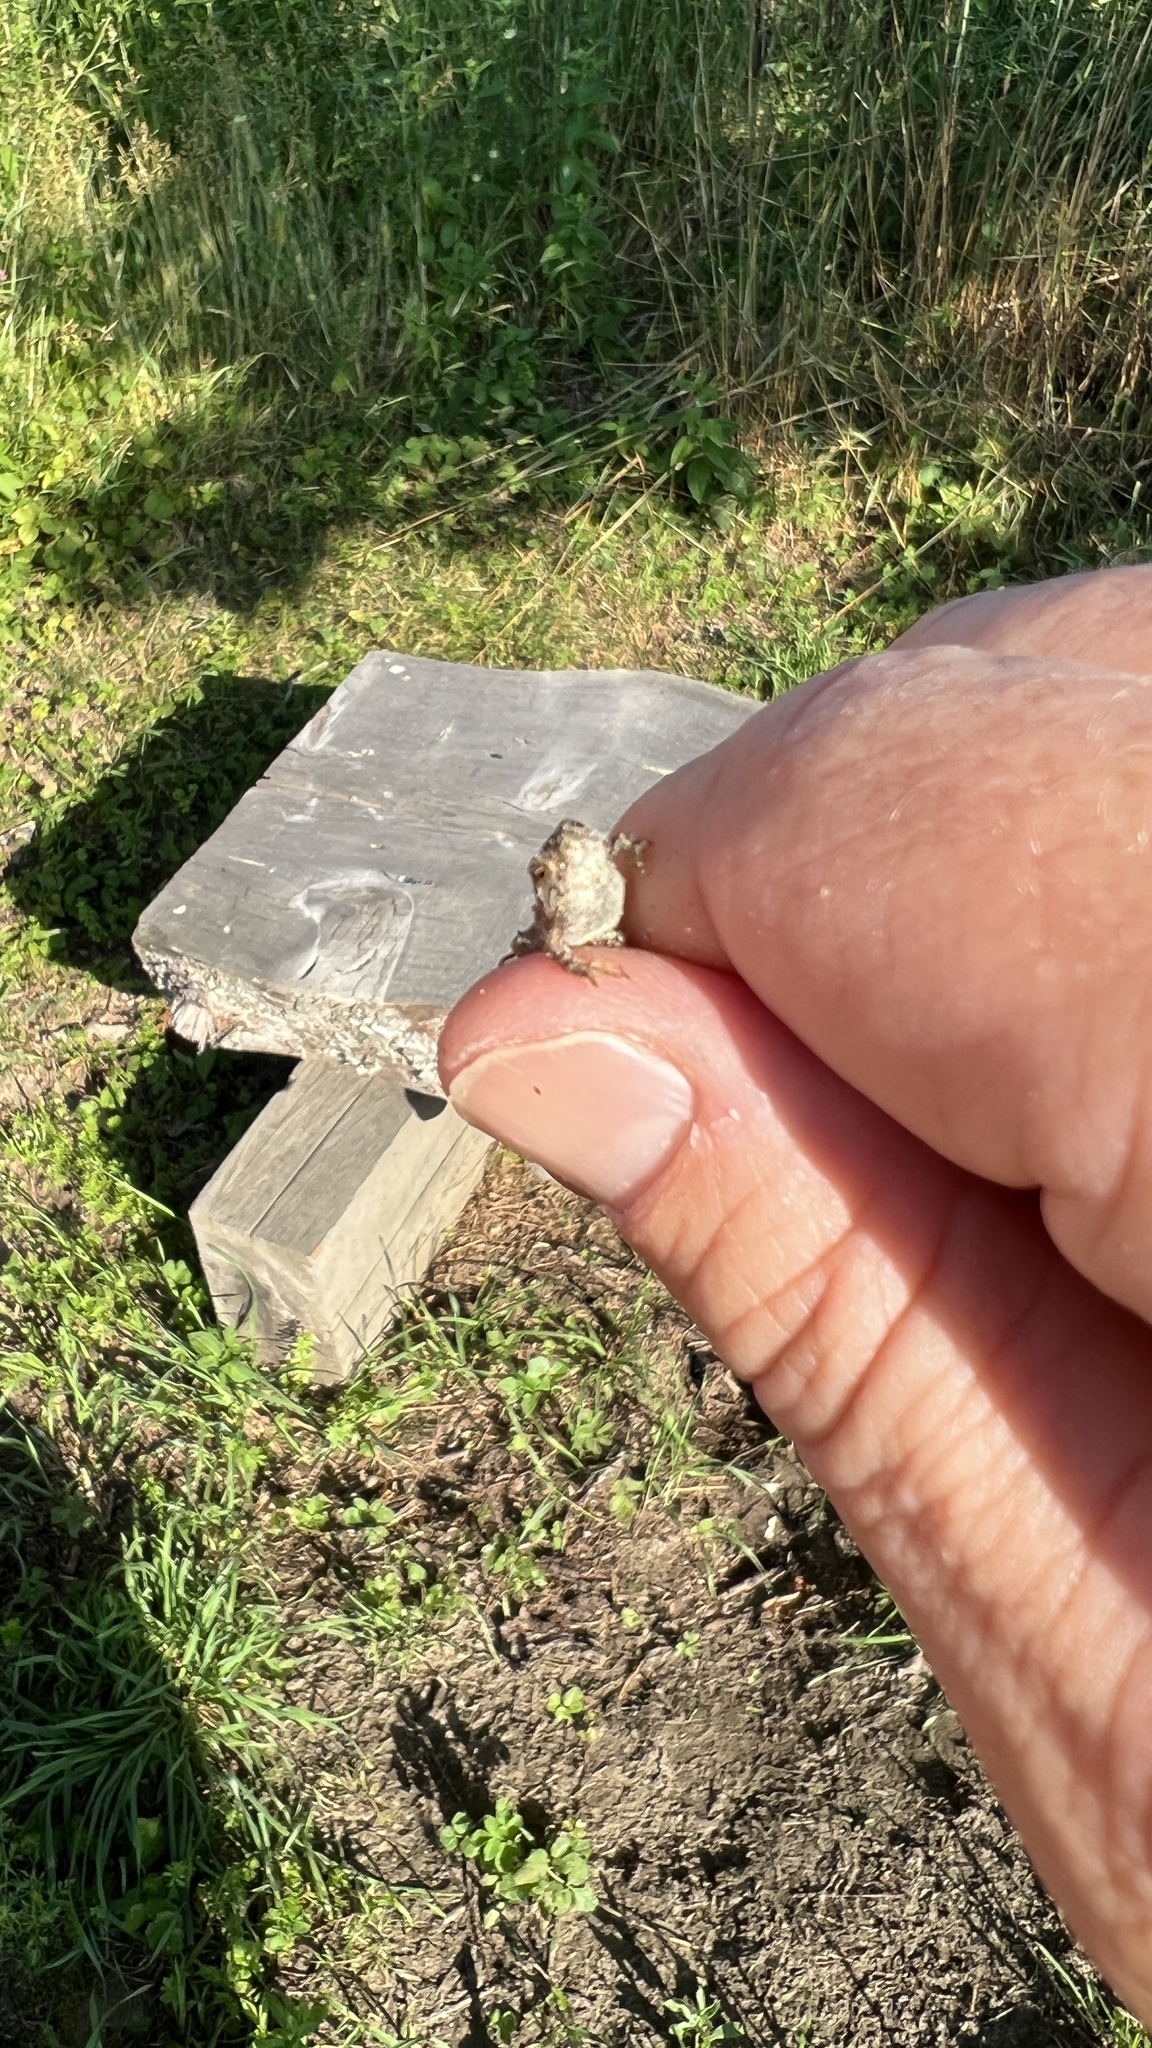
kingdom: Animalia
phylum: Chordata
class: Amphibia
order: Anura
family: Bufonidae
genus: Anaxyrus
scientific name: Anaxyrus americanus
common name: American toad
